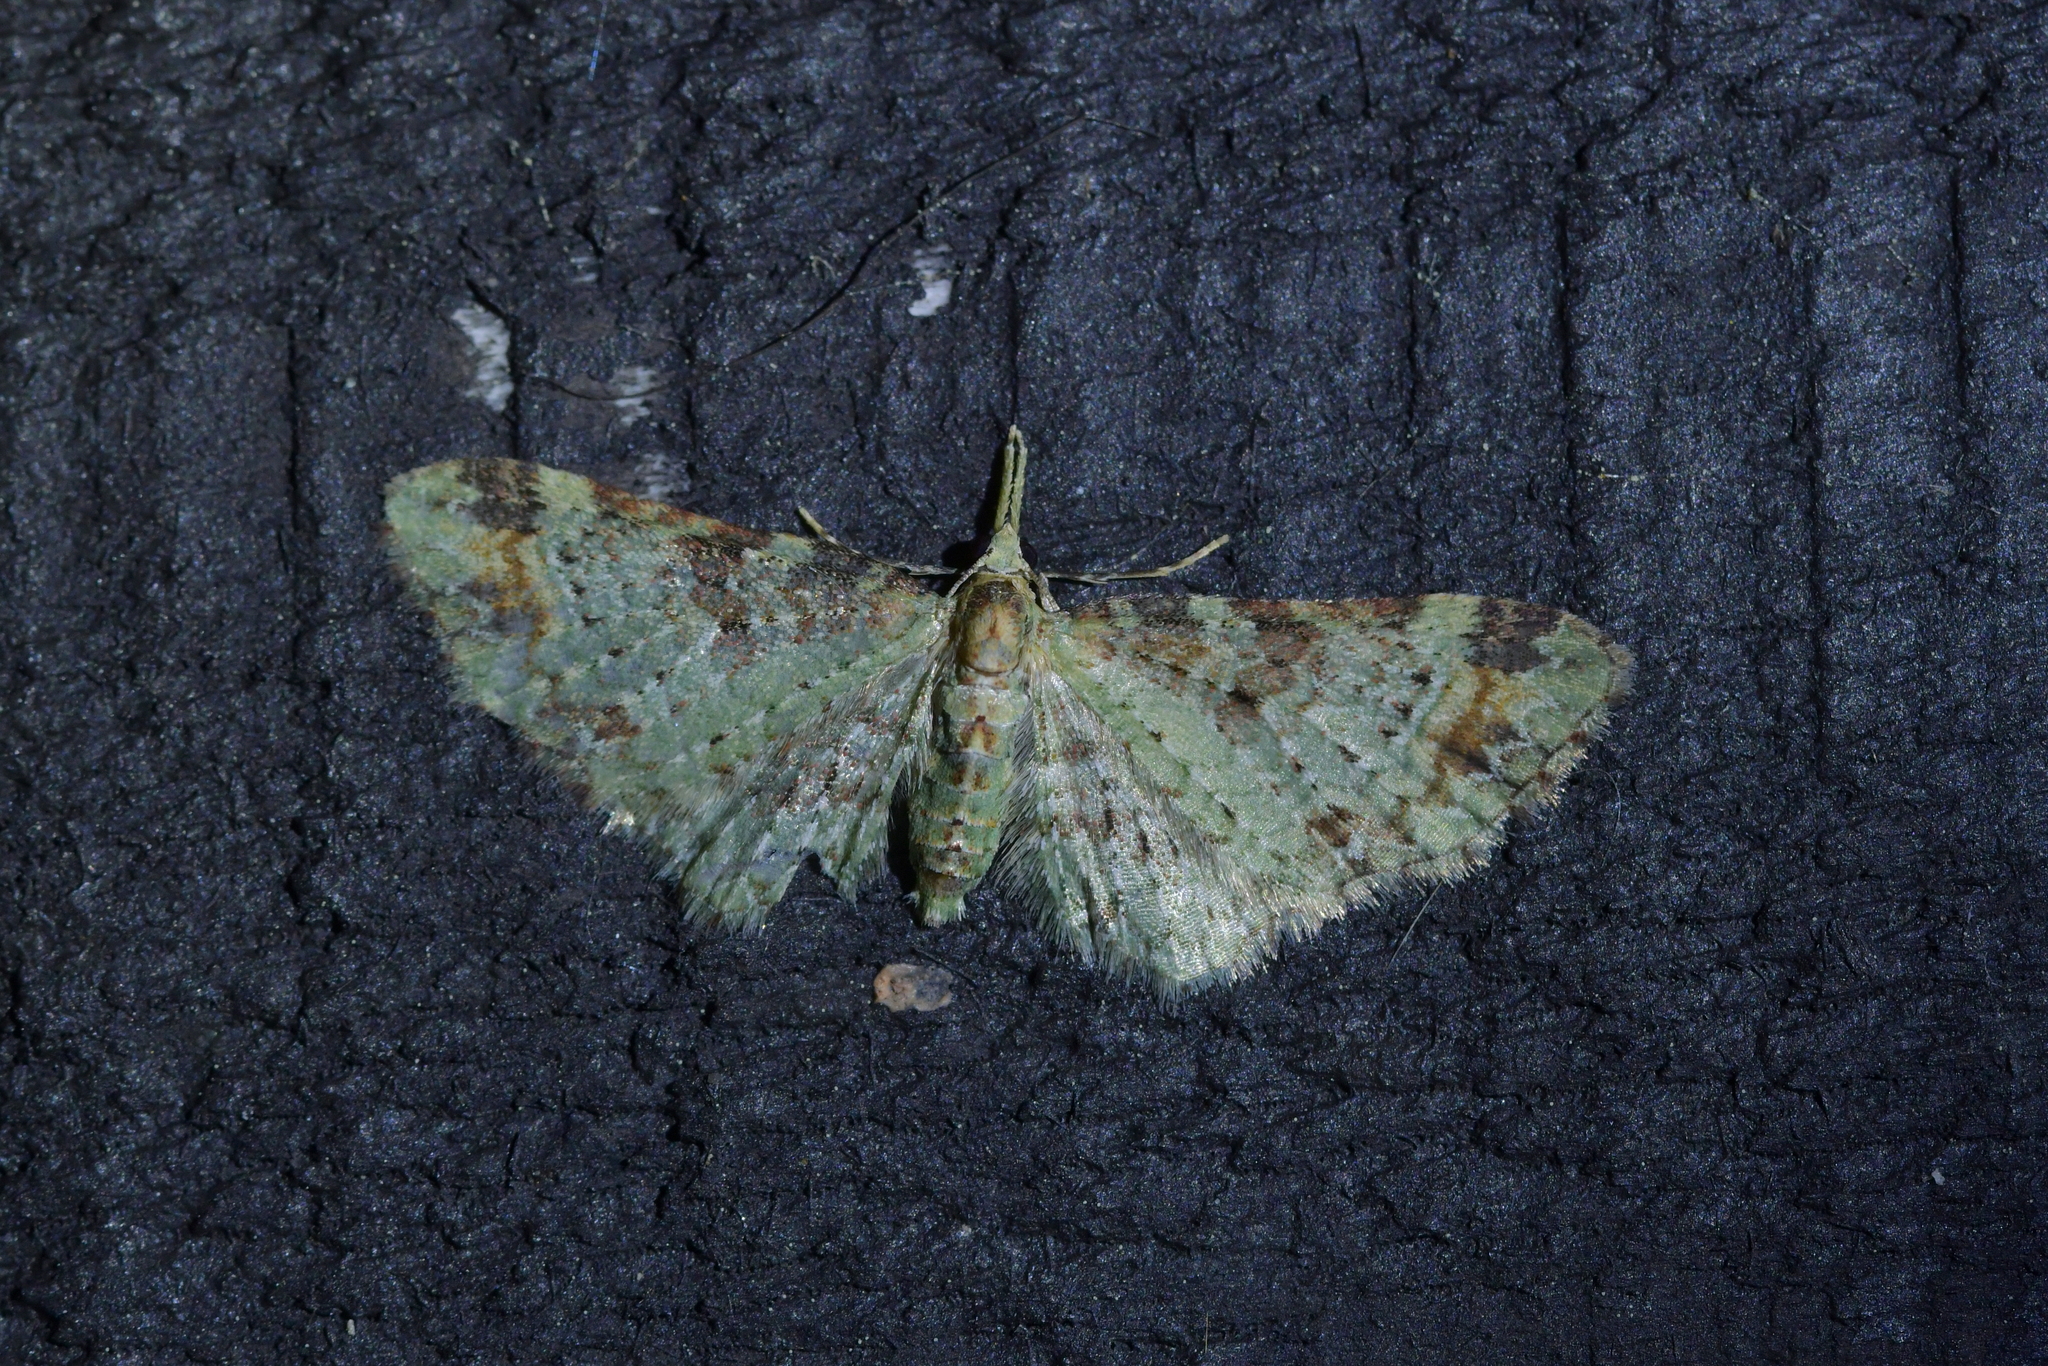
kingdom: Animalia
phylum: Arthropoda
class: Insecta
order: Lepidoptera
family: Geometridae
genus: Pasiphila
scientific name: Pasiphila plinthina
